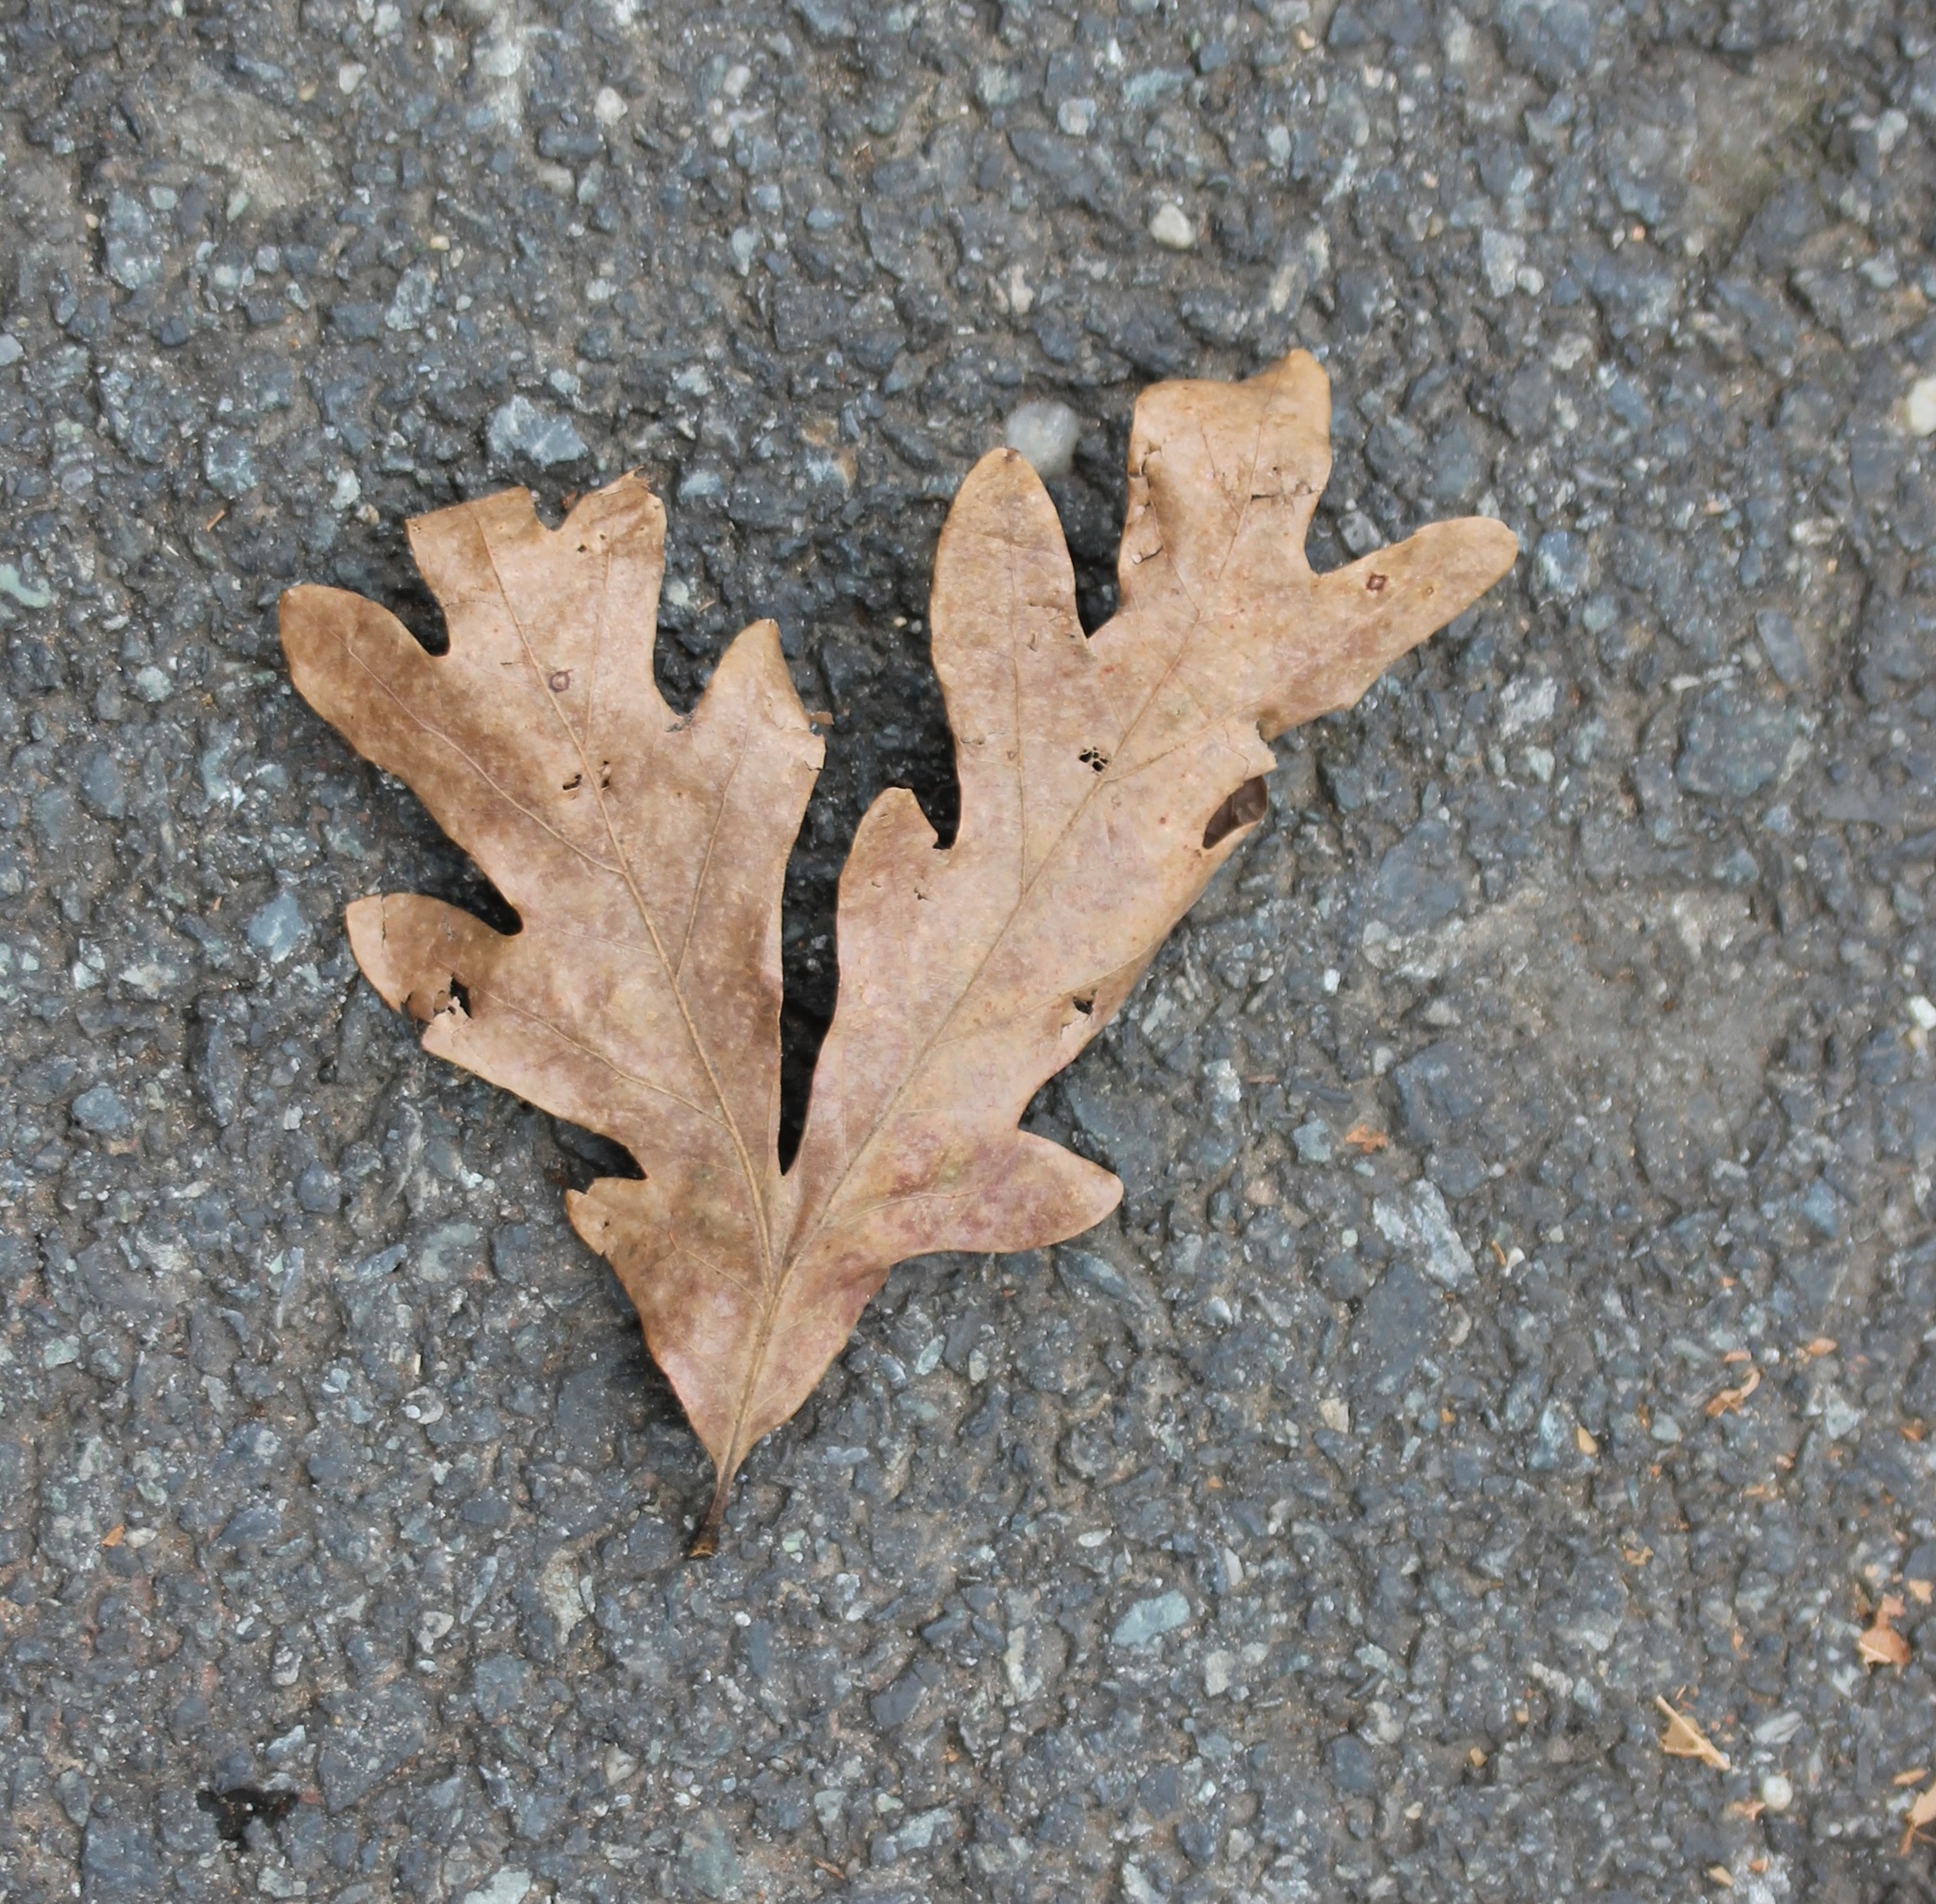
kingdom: Plantae
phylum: Tracheophyta
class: Magnoliopsida
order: Fagales
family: Fagaceae
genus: Quercus
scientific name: Quercus
